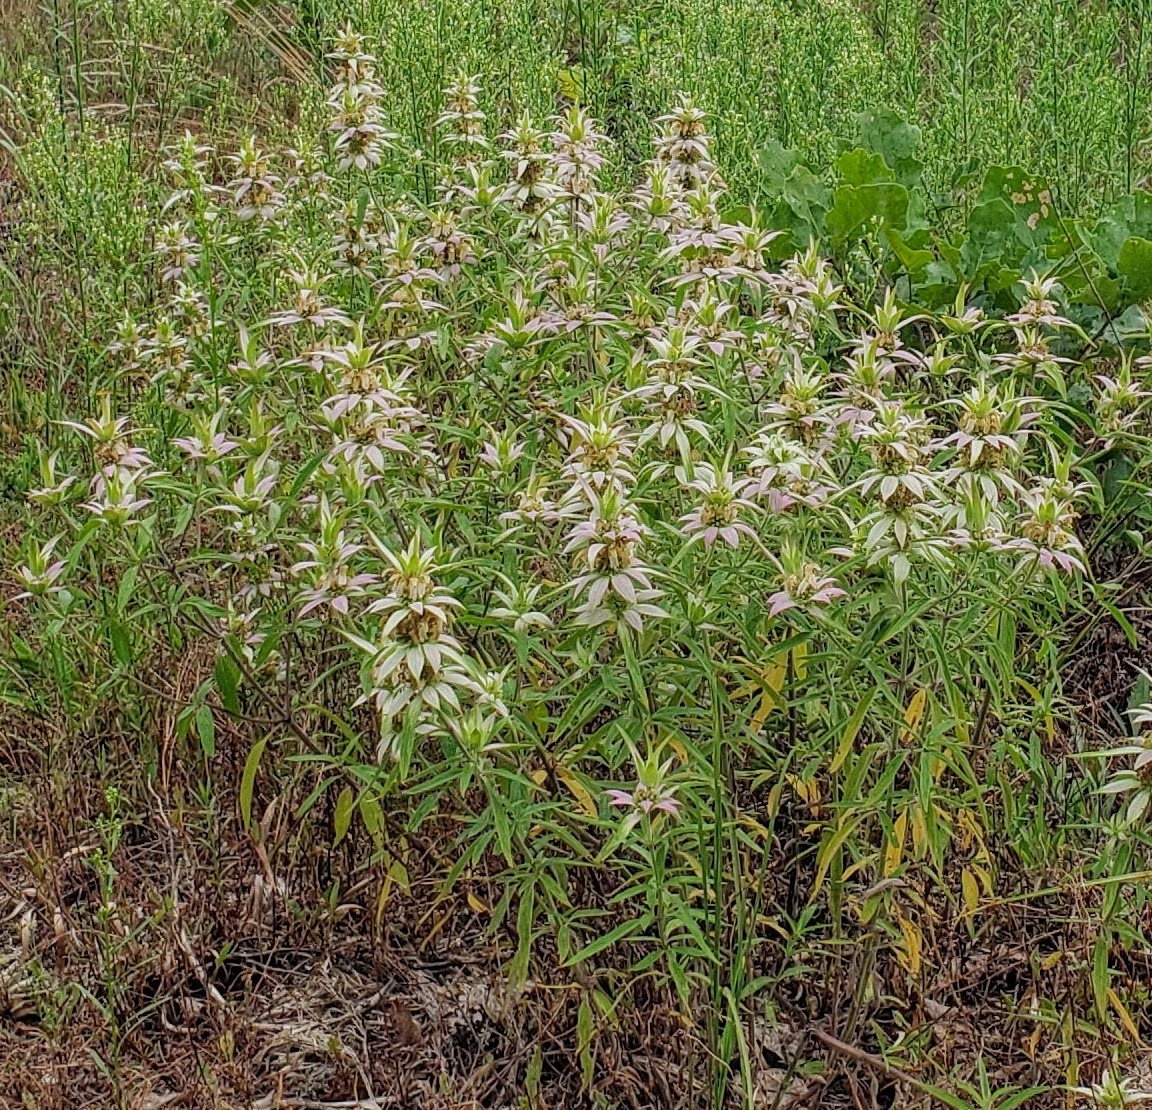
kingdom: Plantae
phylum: Tracheophyta
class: Magnoliopsida
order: Lamiales
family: Lamiaceae
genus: Monarda
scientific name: Monarda punctata
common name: Dotted monarda
